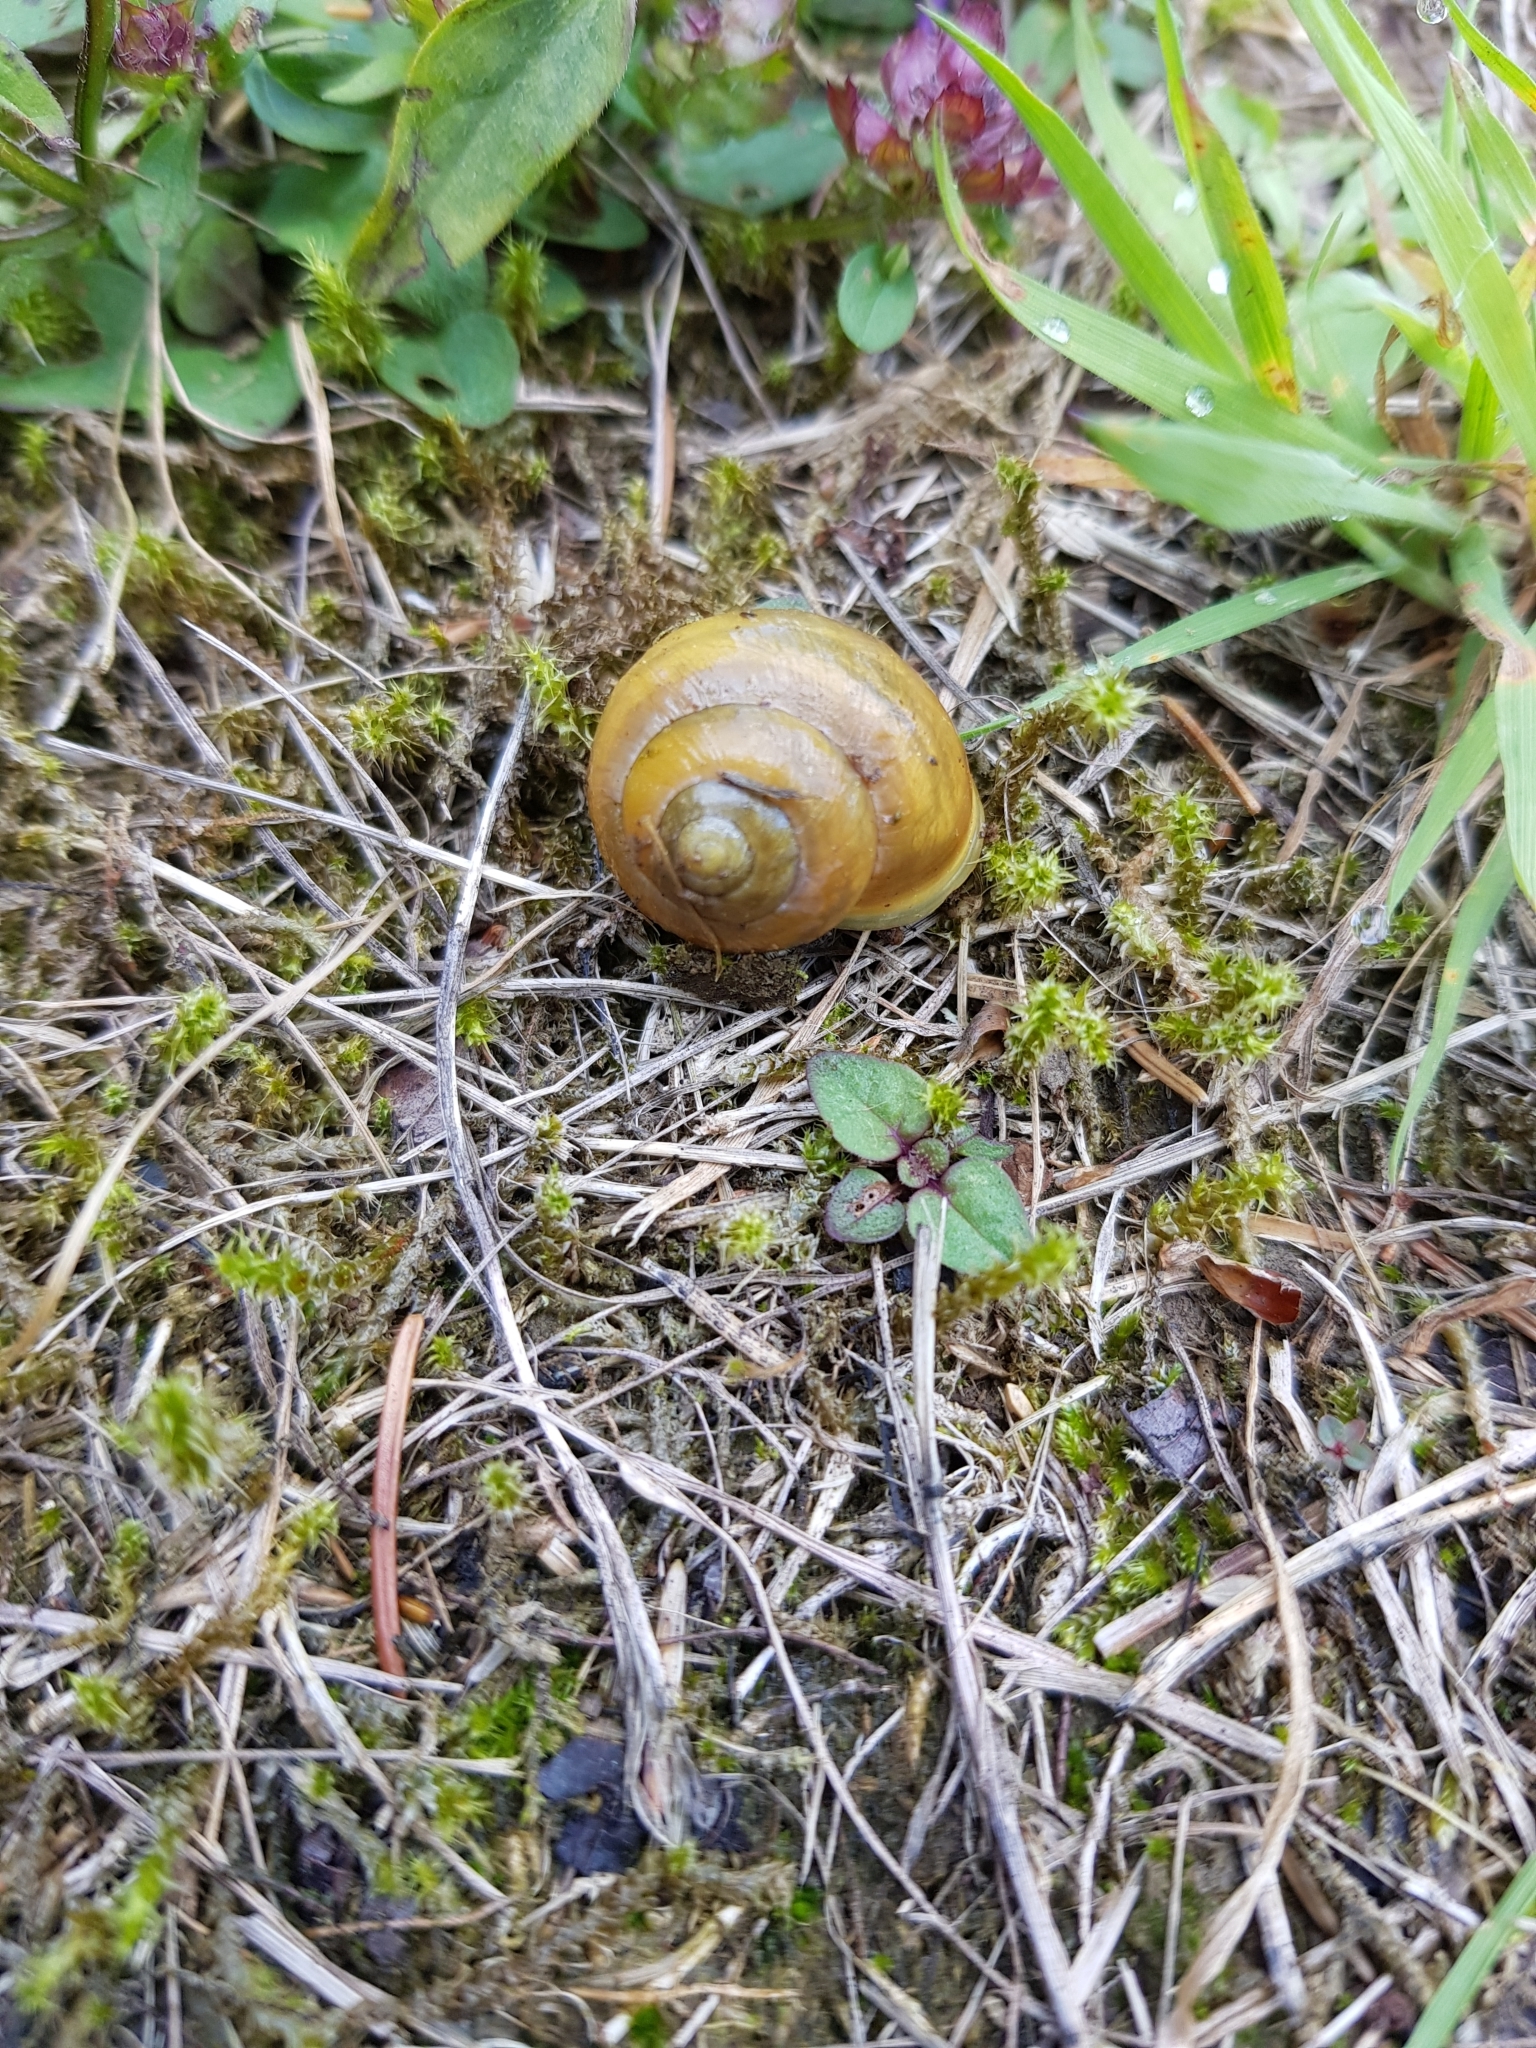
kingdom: Animalia
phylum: Mollusca
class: Gastropoda
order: Stylommatophora
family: Helicidae
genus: Cepaea
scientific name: Cepaea hortensis
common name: White-lip gardensnail
